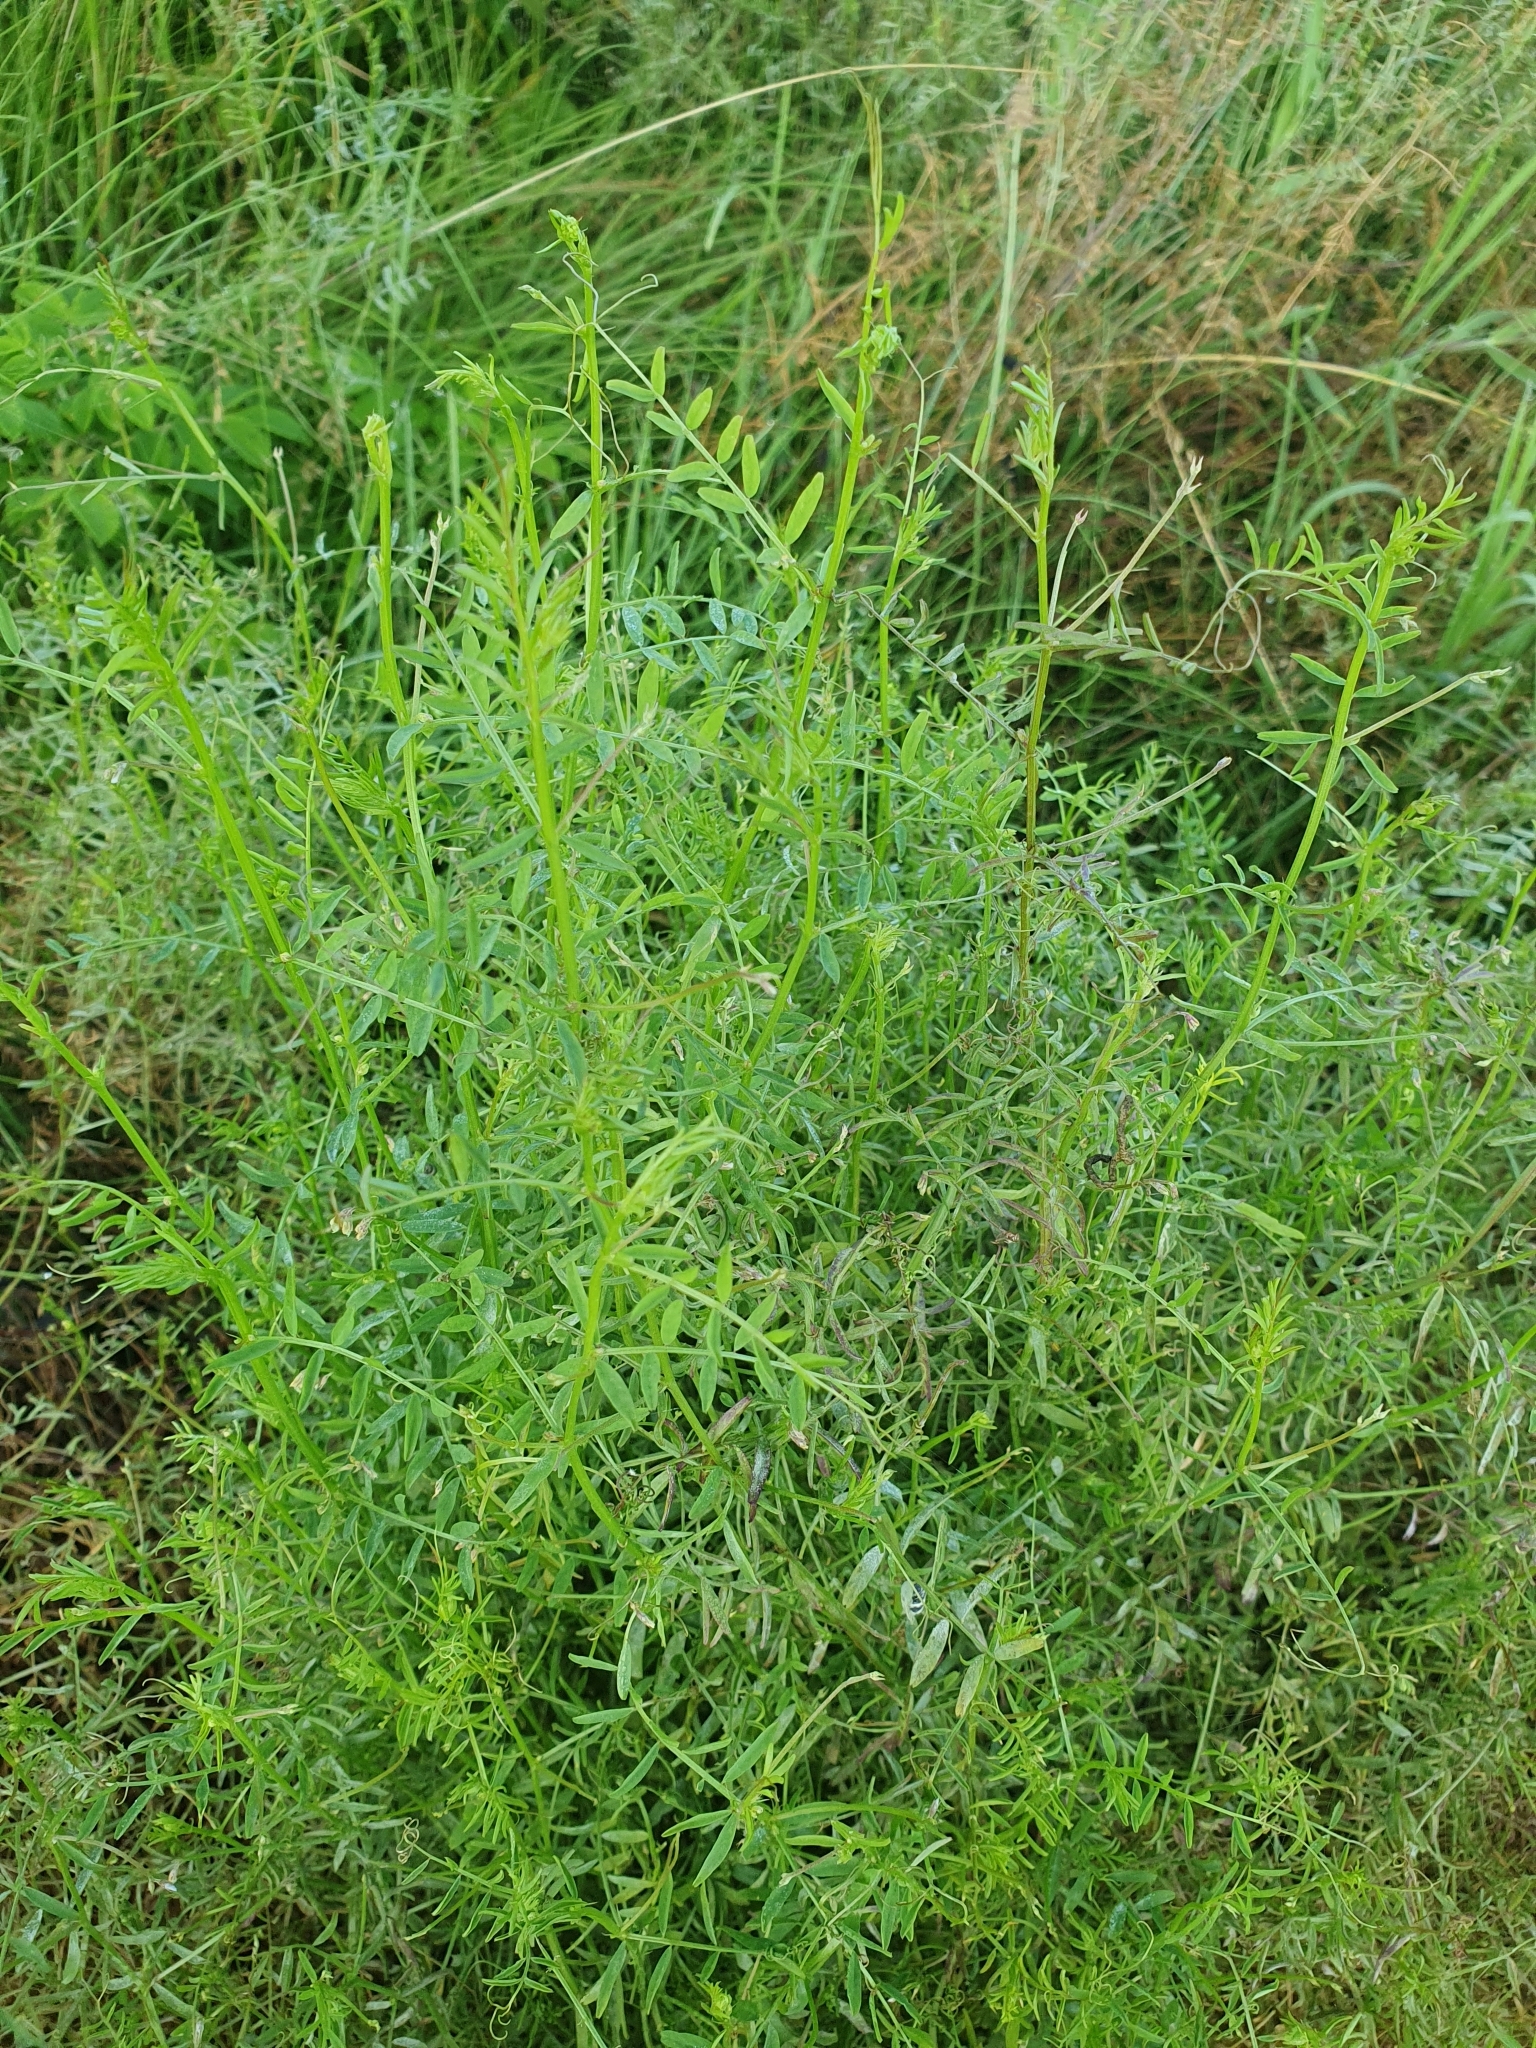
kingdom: Plantae
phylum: Tracheophyta
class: Magnoliopsida
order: Fabales
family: Fabaceae
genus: Vicia
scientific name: Vicia hirsuta
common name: Tiny vetch
